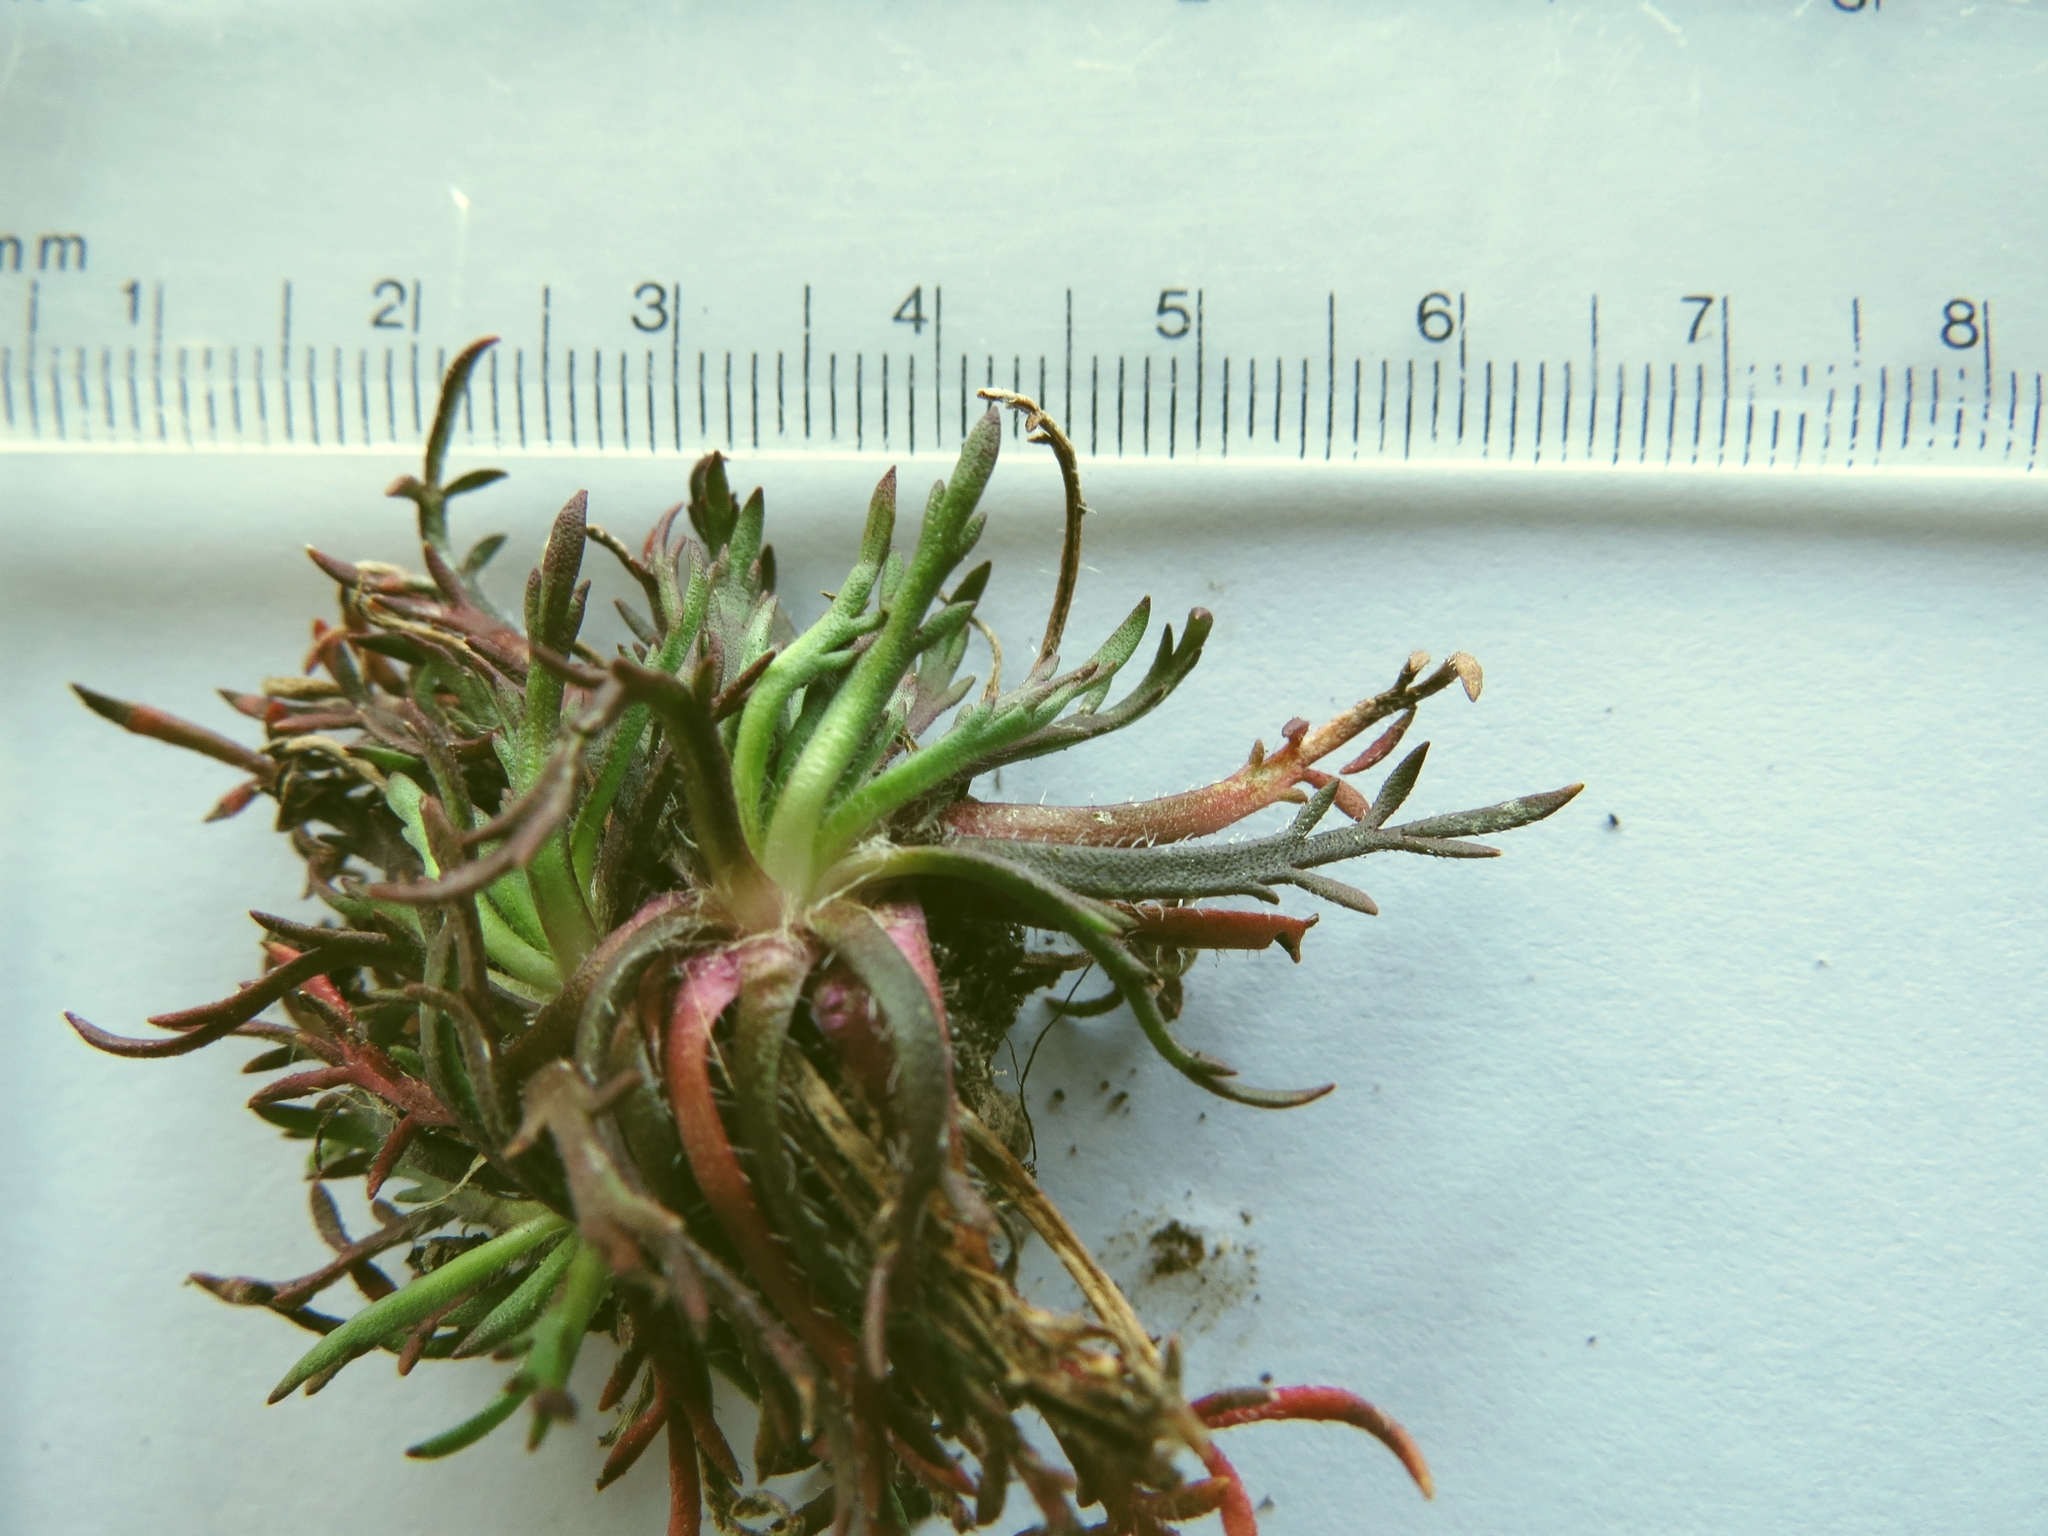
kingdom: Plantae
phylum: Tracheophyta
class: Magnoliopsida
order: Lamiales
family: Plantaginaceae
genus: Plantago
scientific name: Plantago coronopus
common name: Buck's-horn plantain
